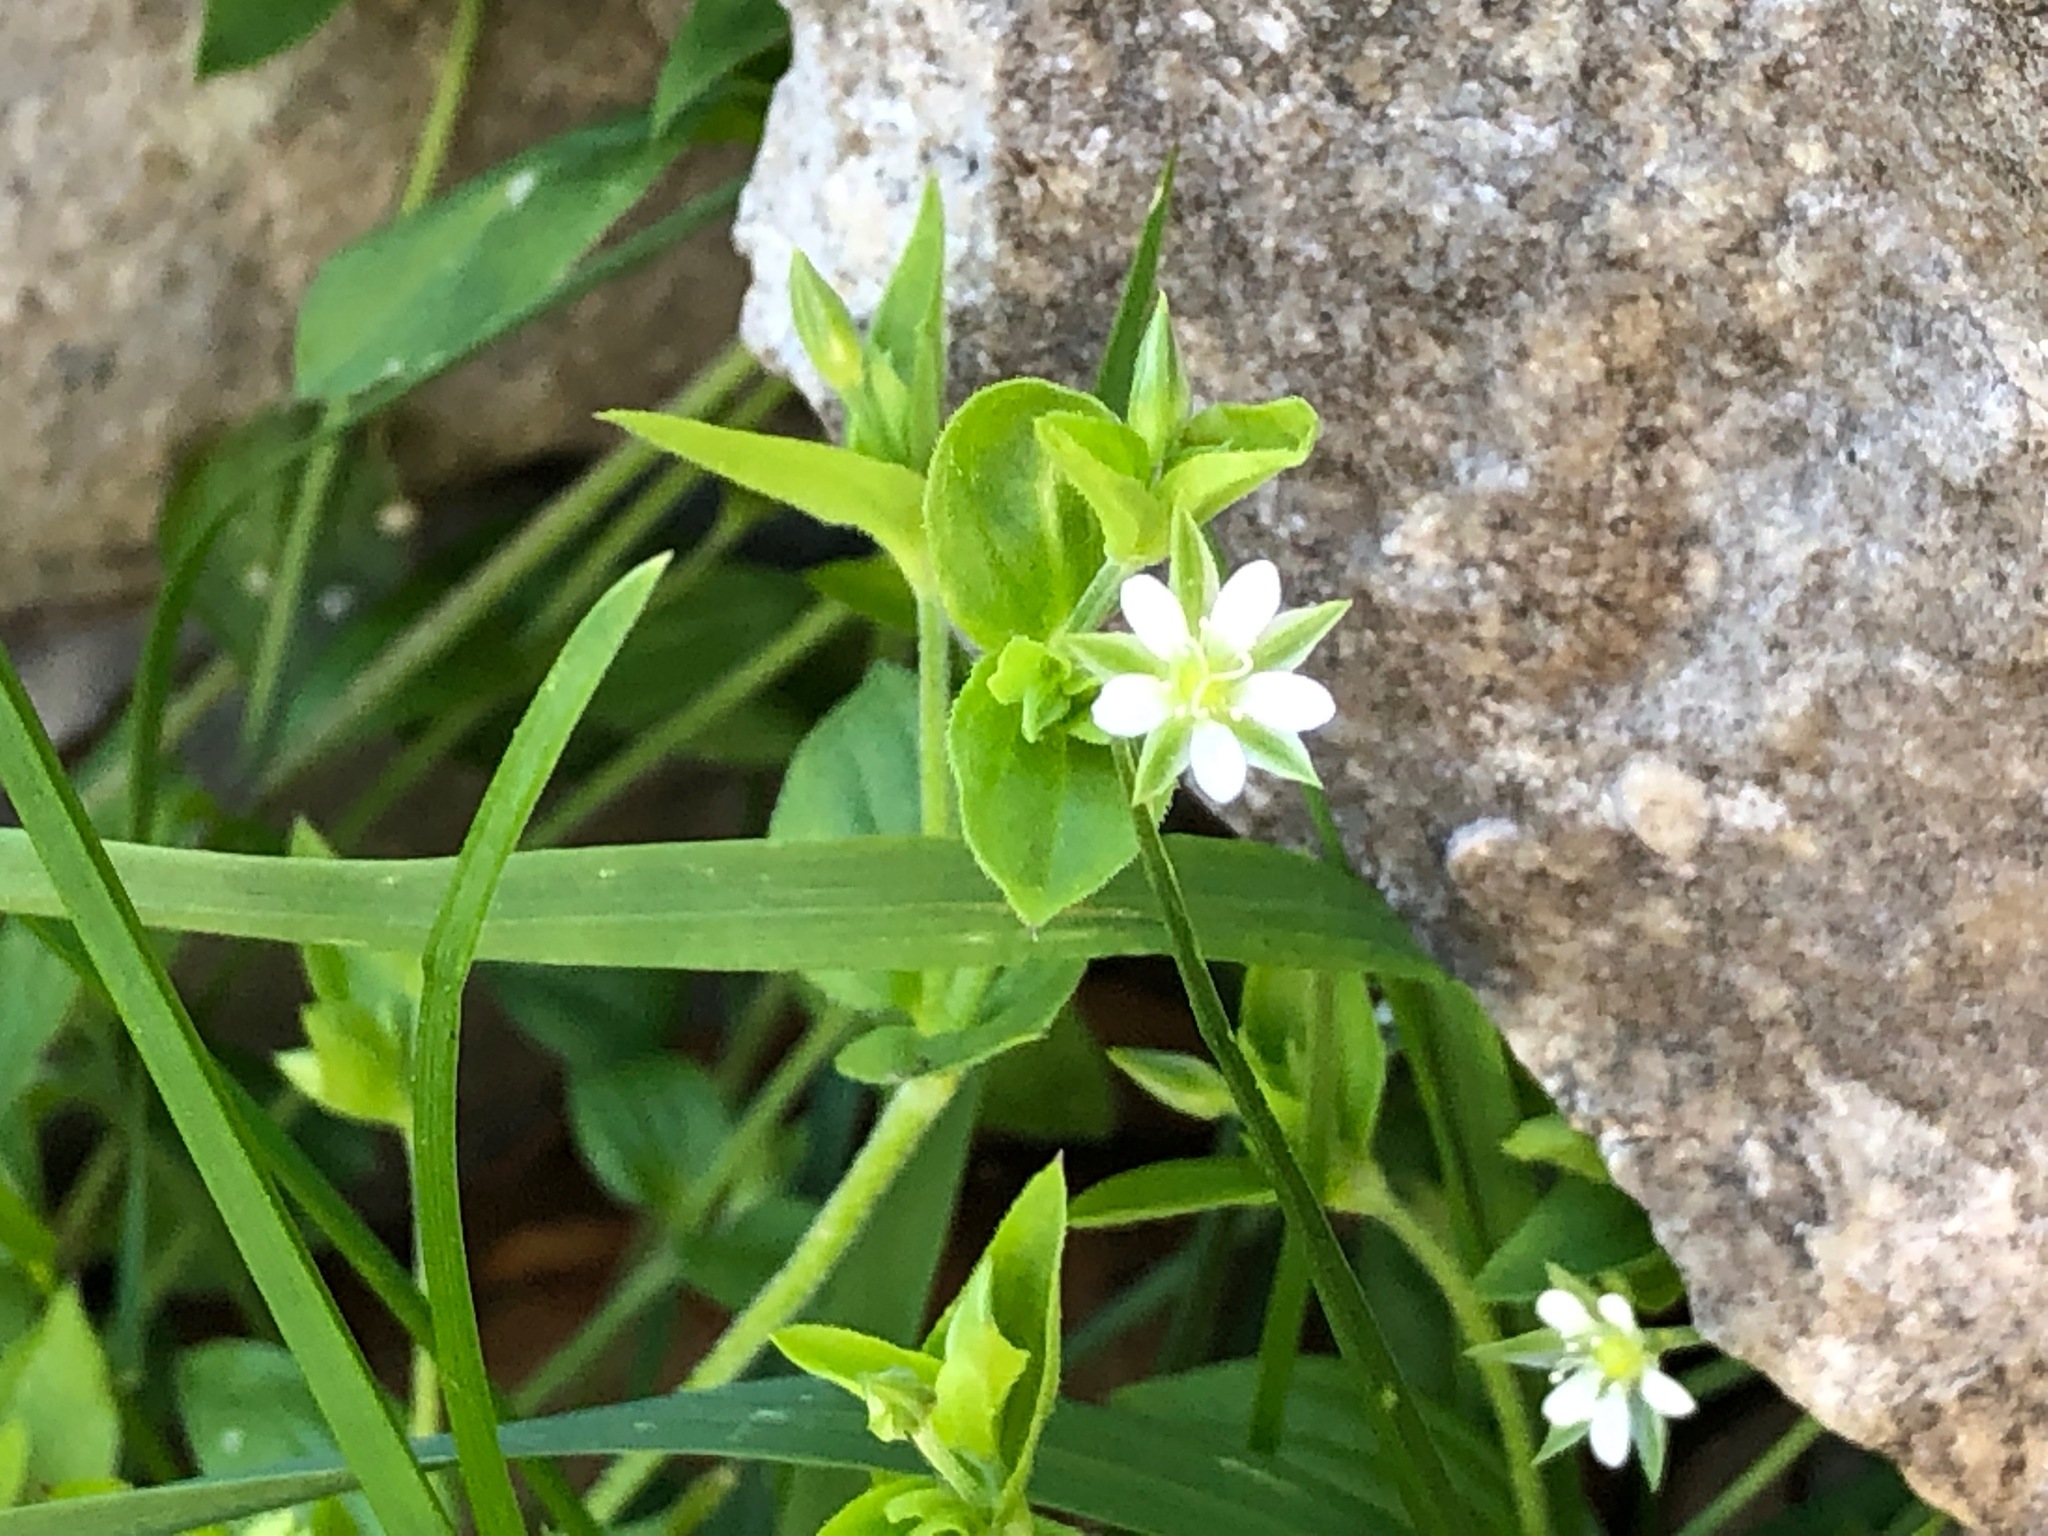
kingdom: Plantae
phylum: Tracheophyta
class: Magnoliopsida
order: Caryophyllales
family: Caryophyllaceae
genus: Moehringia
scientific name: Moehringia trinervia
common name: Three-nerved sandwort
